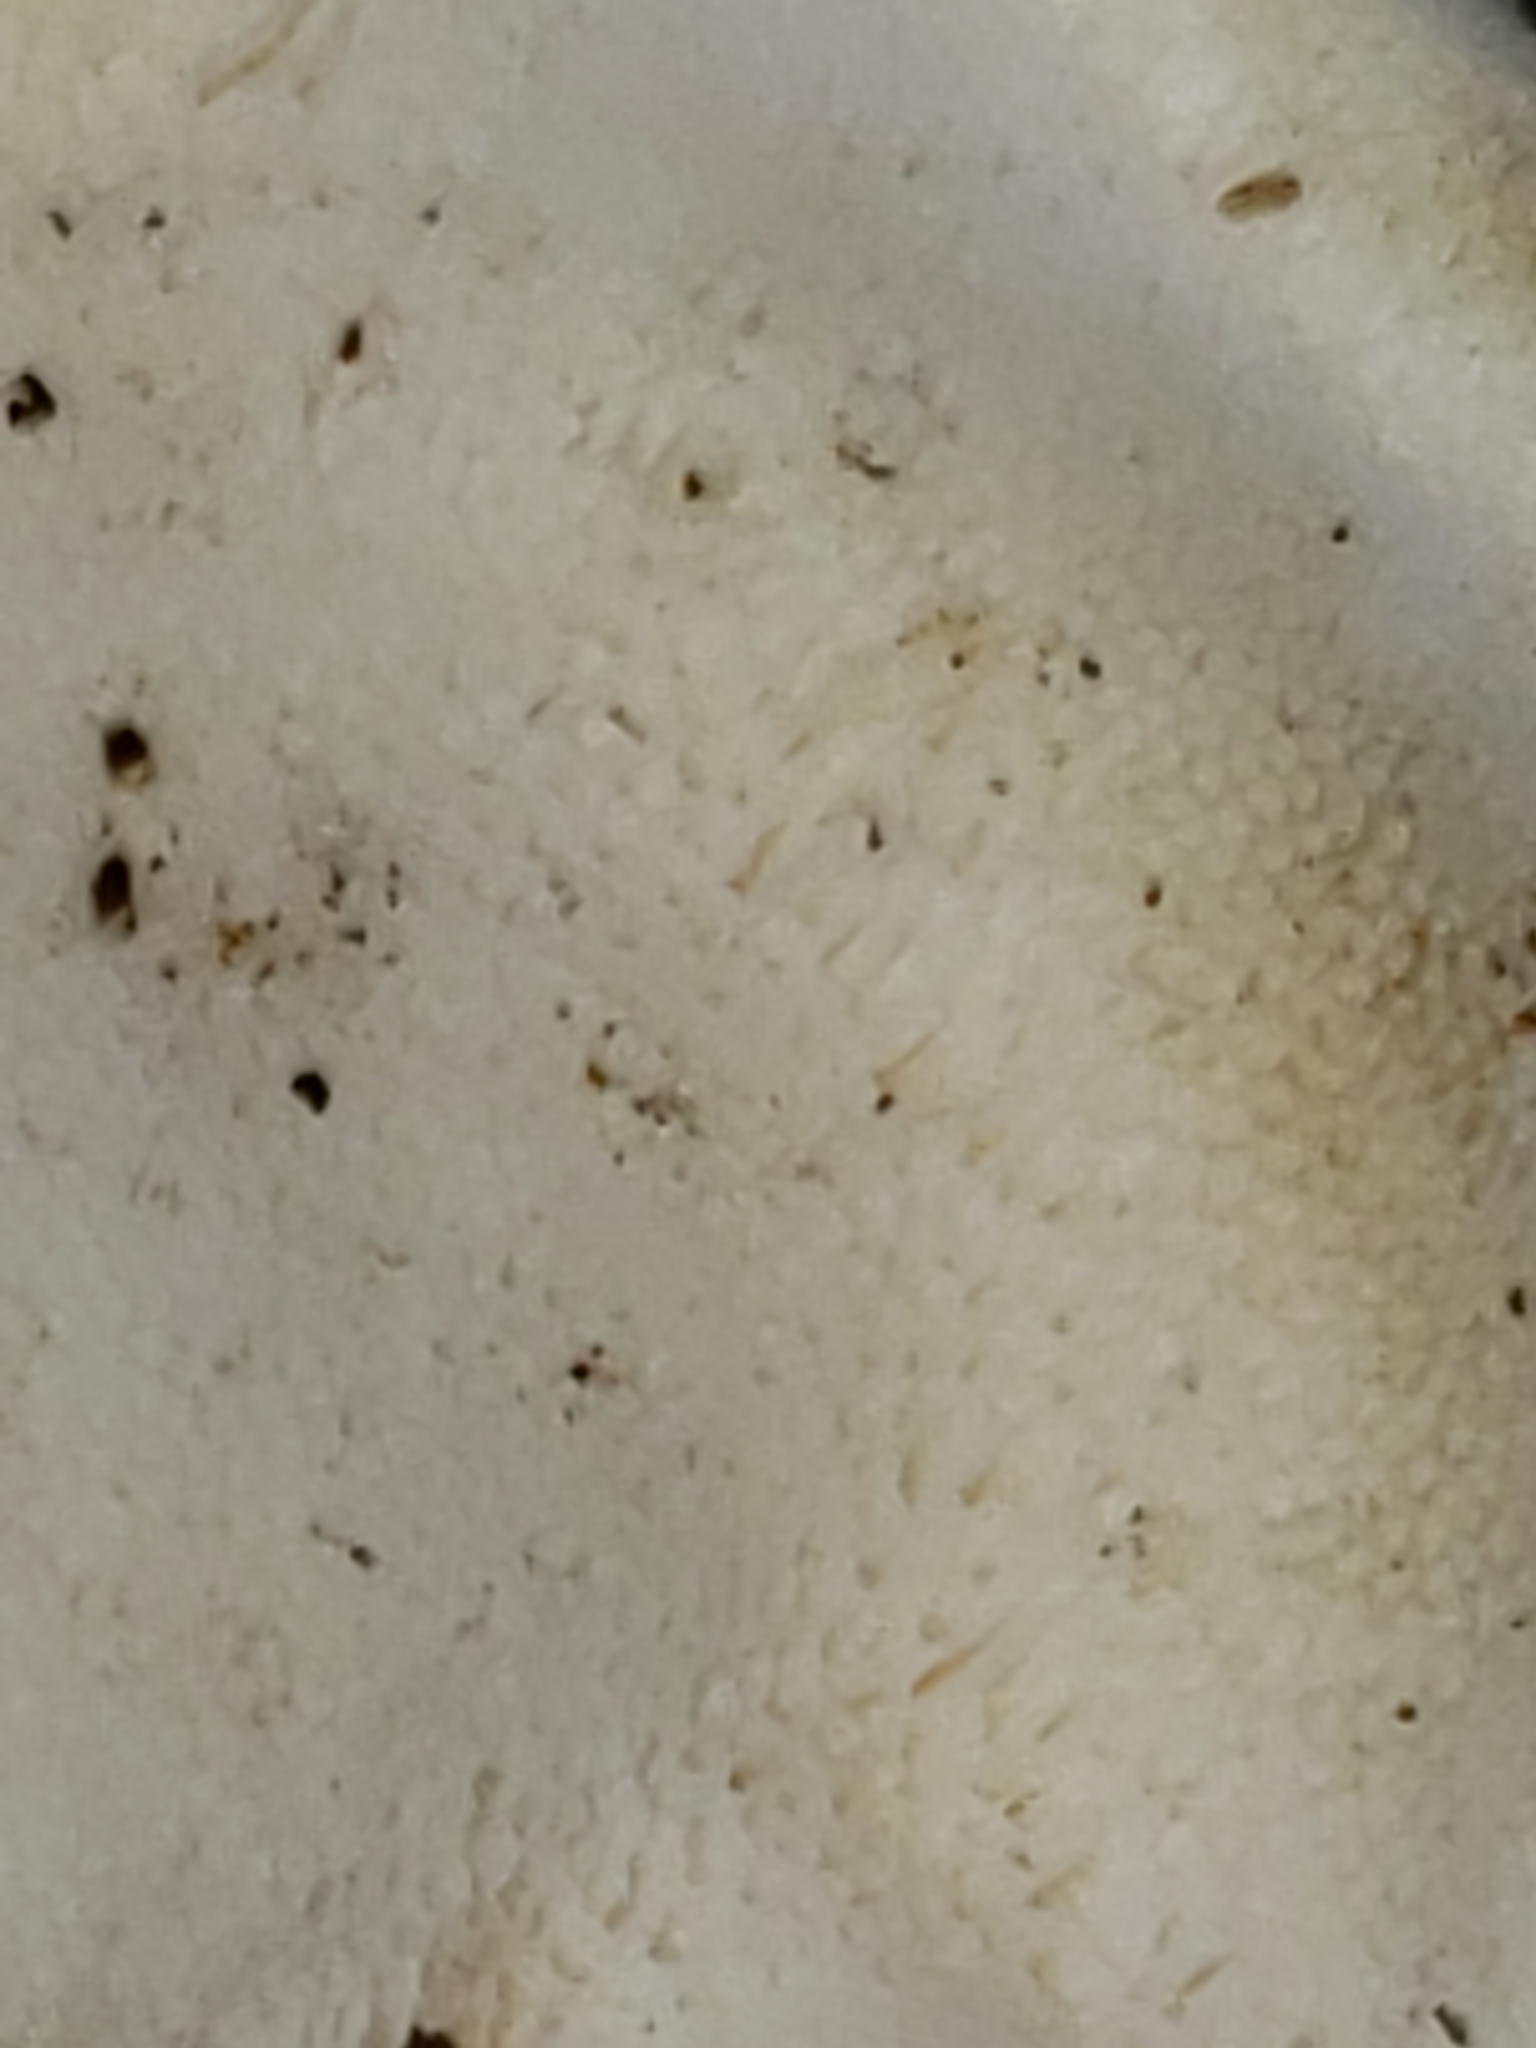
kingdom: Fungi
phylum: Basidiomycota
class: Agaricomycetes
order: Polyporales
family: Incrustoporiaceae
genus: Tyromyces
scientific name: Tyromyces chioneus
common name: White cheese polypore
